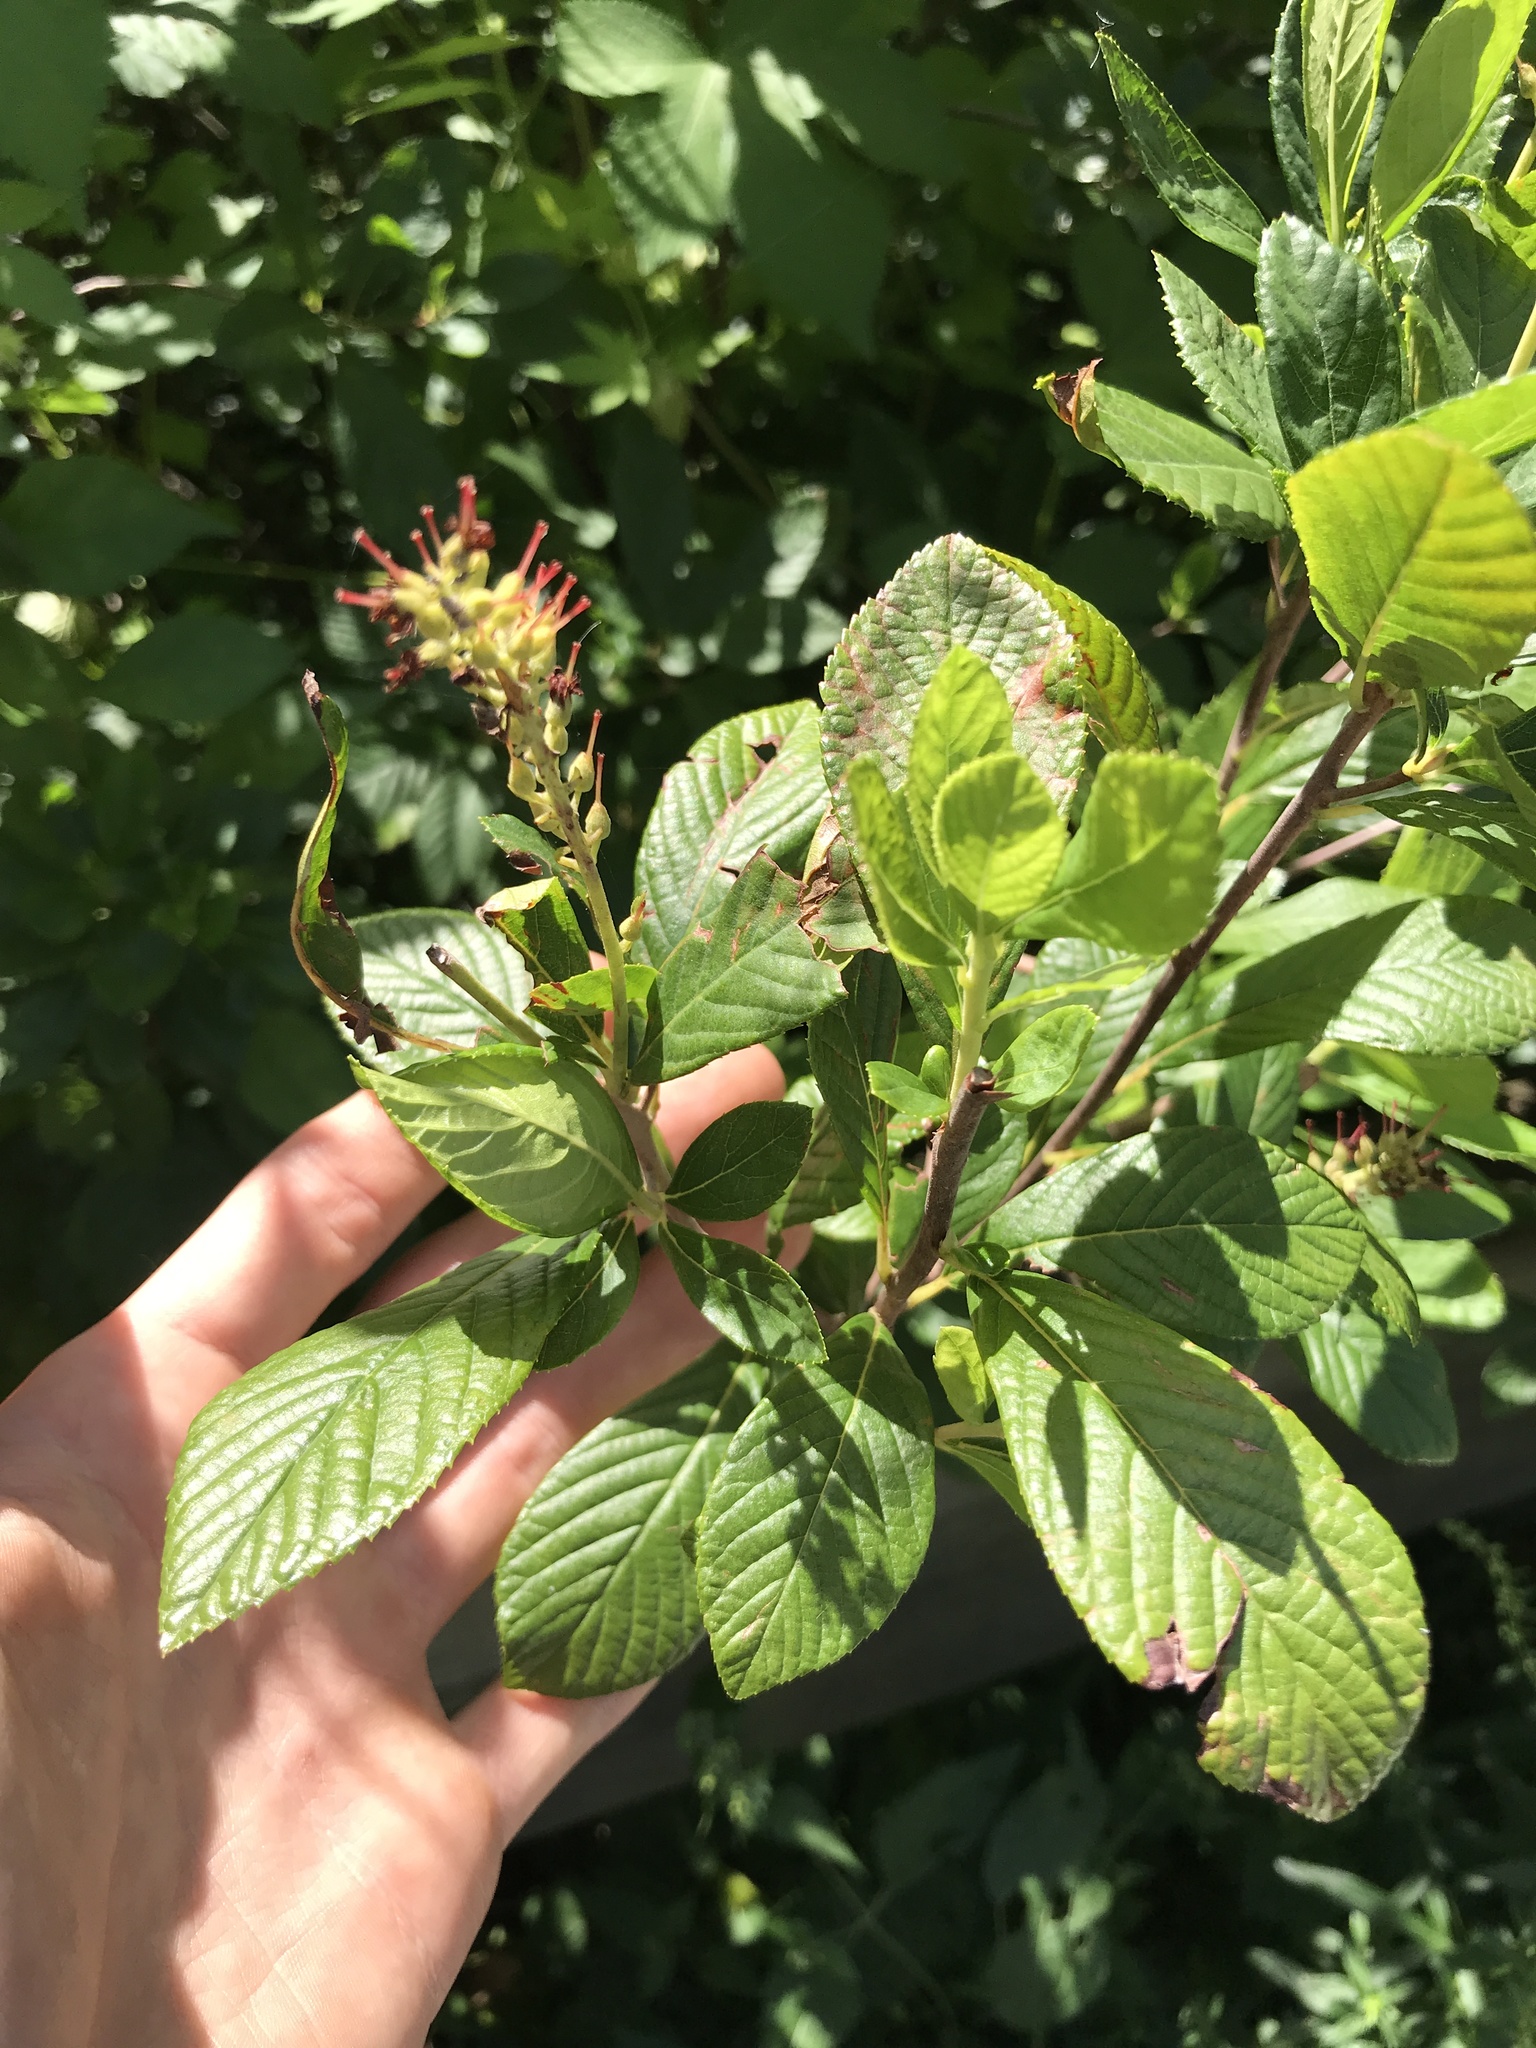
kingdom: Plantae
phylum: Tracheophyta
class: Magnoliopsida
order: Ericales
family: Clethraceae
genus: Clethra
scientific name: Clethra alnifolia
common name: Sweet pepperbush
